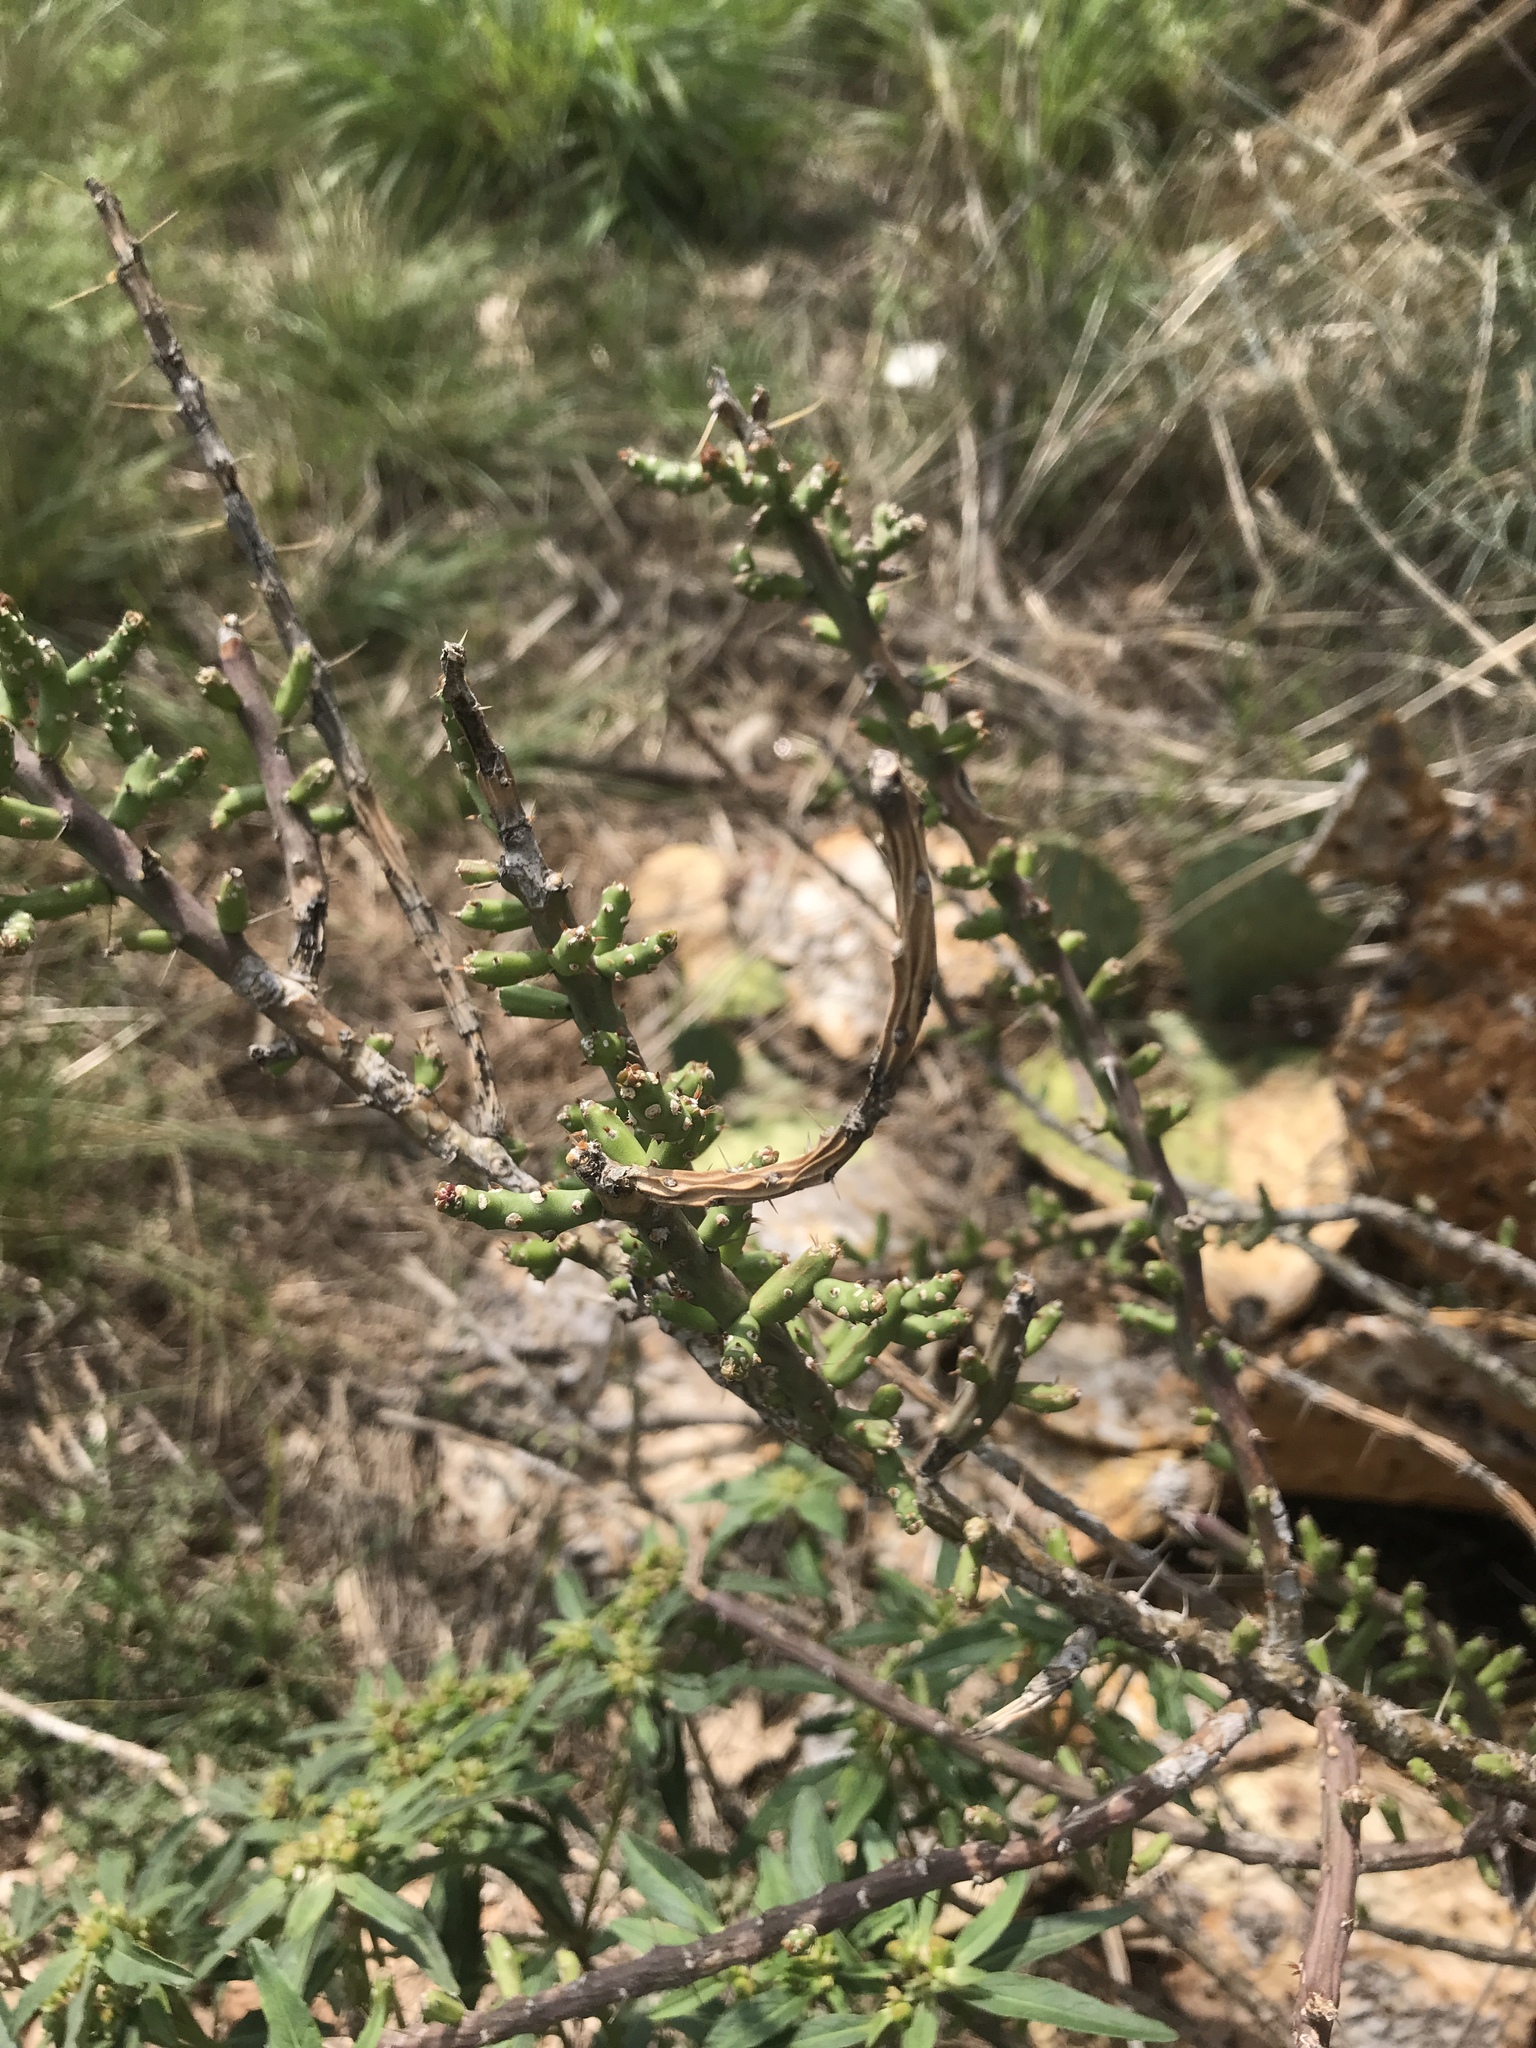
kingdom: Plantae
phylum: Tracheophyta
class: Magnoliopsida
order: Caryophyllales
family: Cactaceae
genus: Cylindropuntia
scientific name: Cylindropuntia leptocaulis
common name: Christmas cactus
